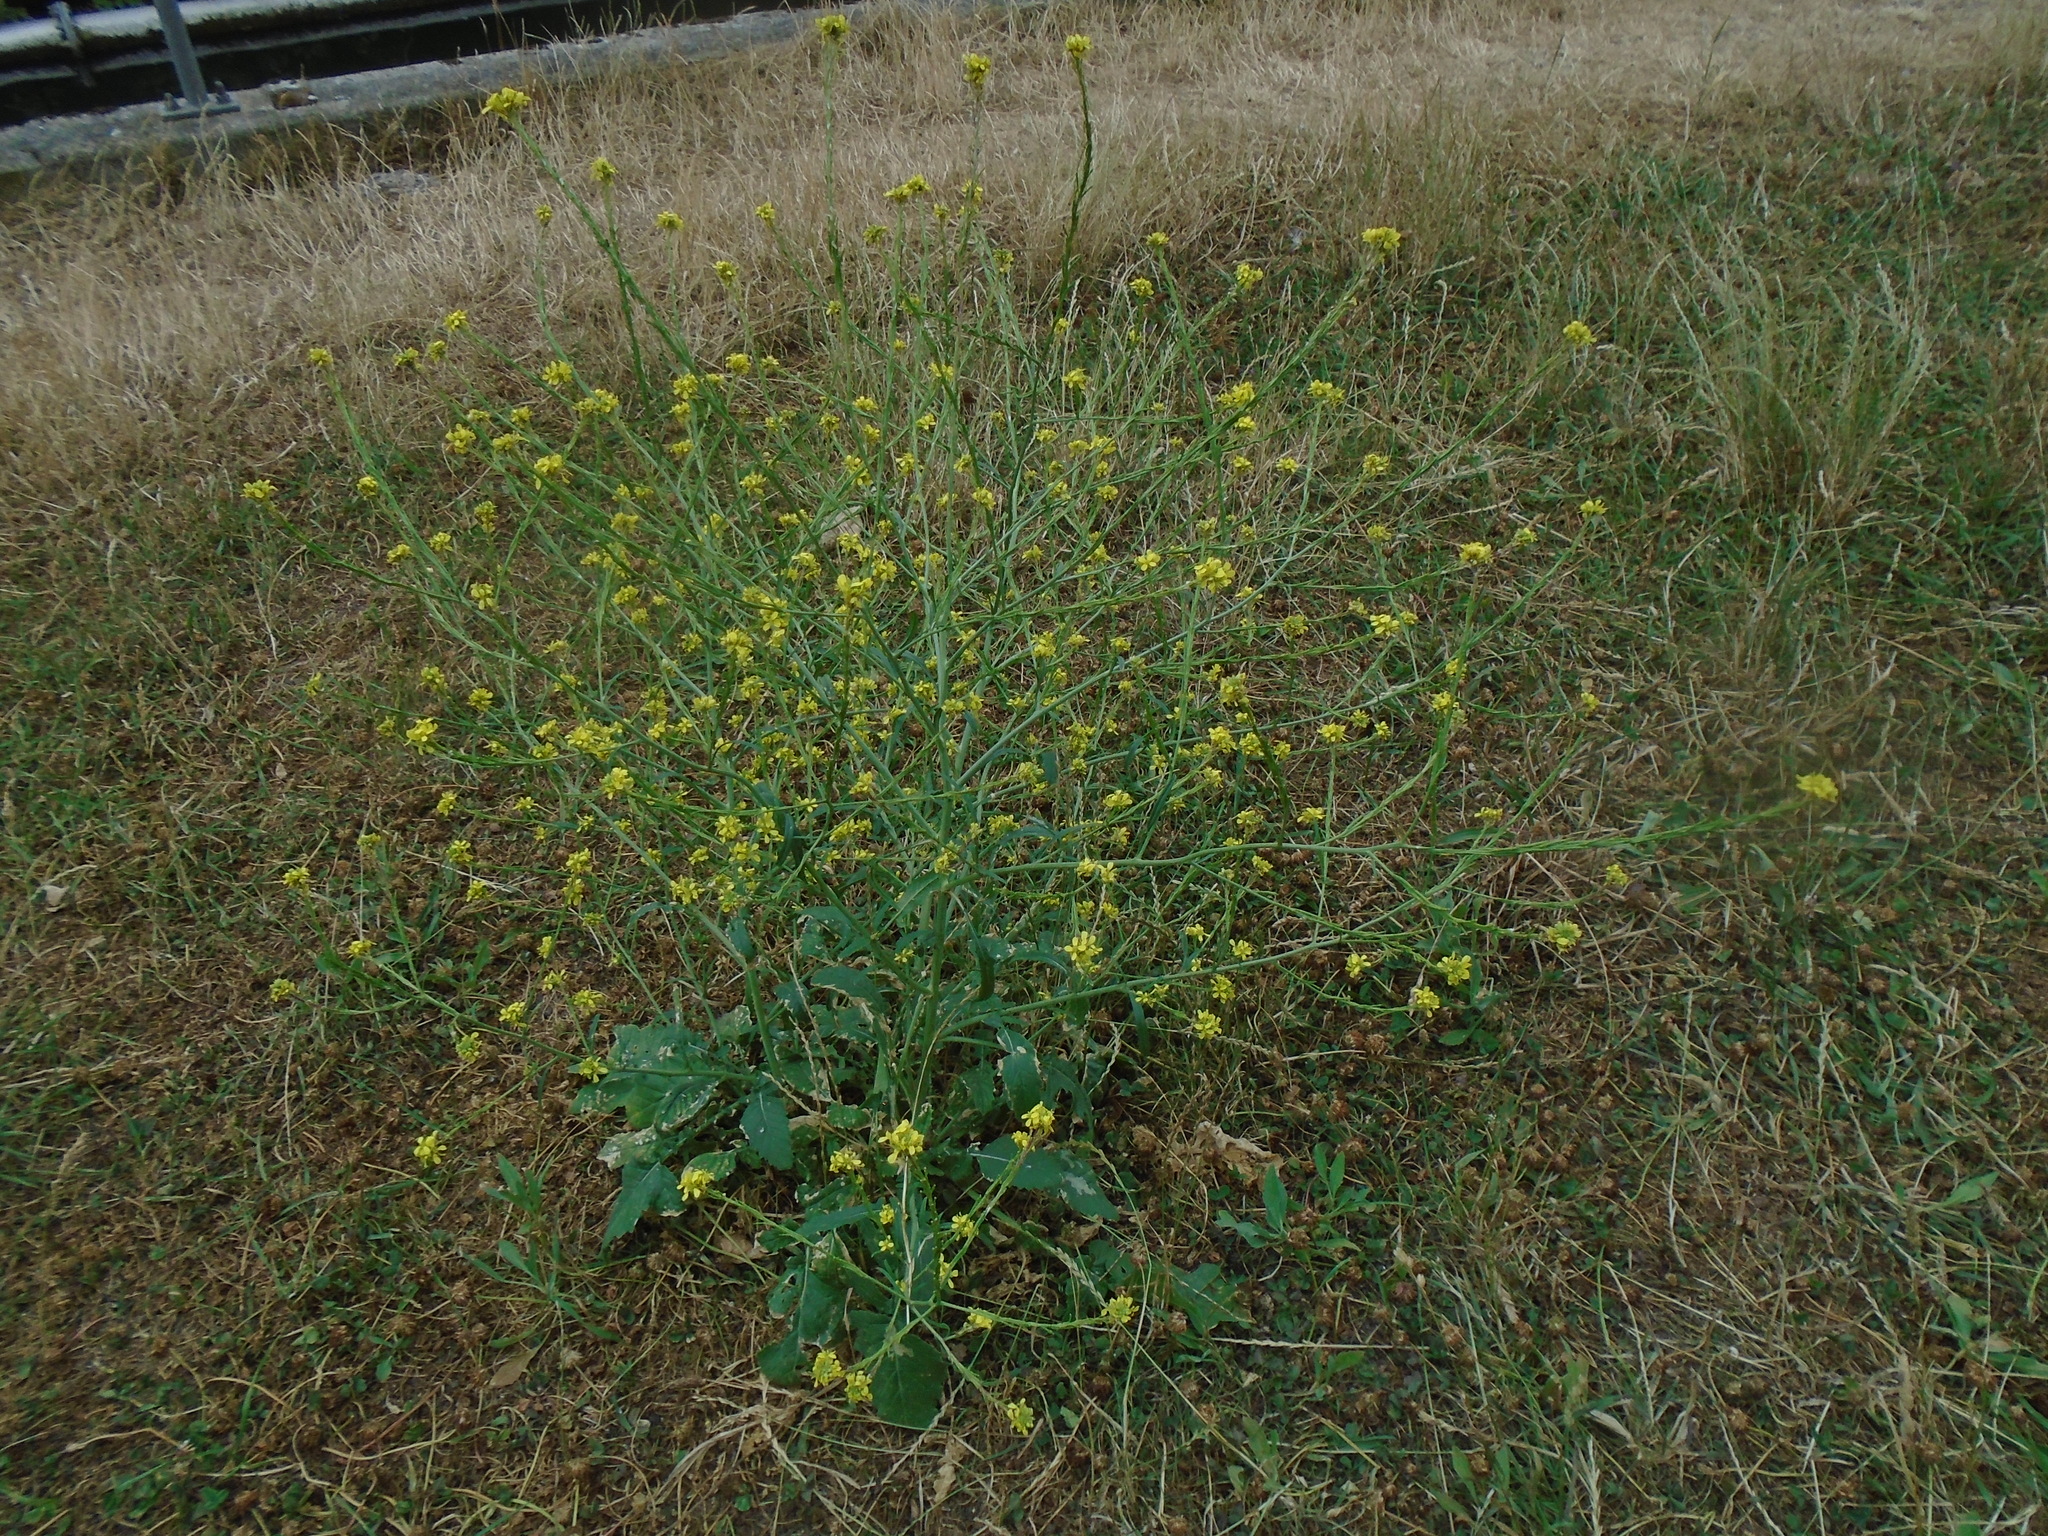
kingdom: Plantae
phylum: Tracheophyta
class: Magnoliopsida
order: Brassicales
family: Brassicaceae
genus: Hirschfeldia
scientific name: Hirschfeldia incana
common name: Hoary mustard
